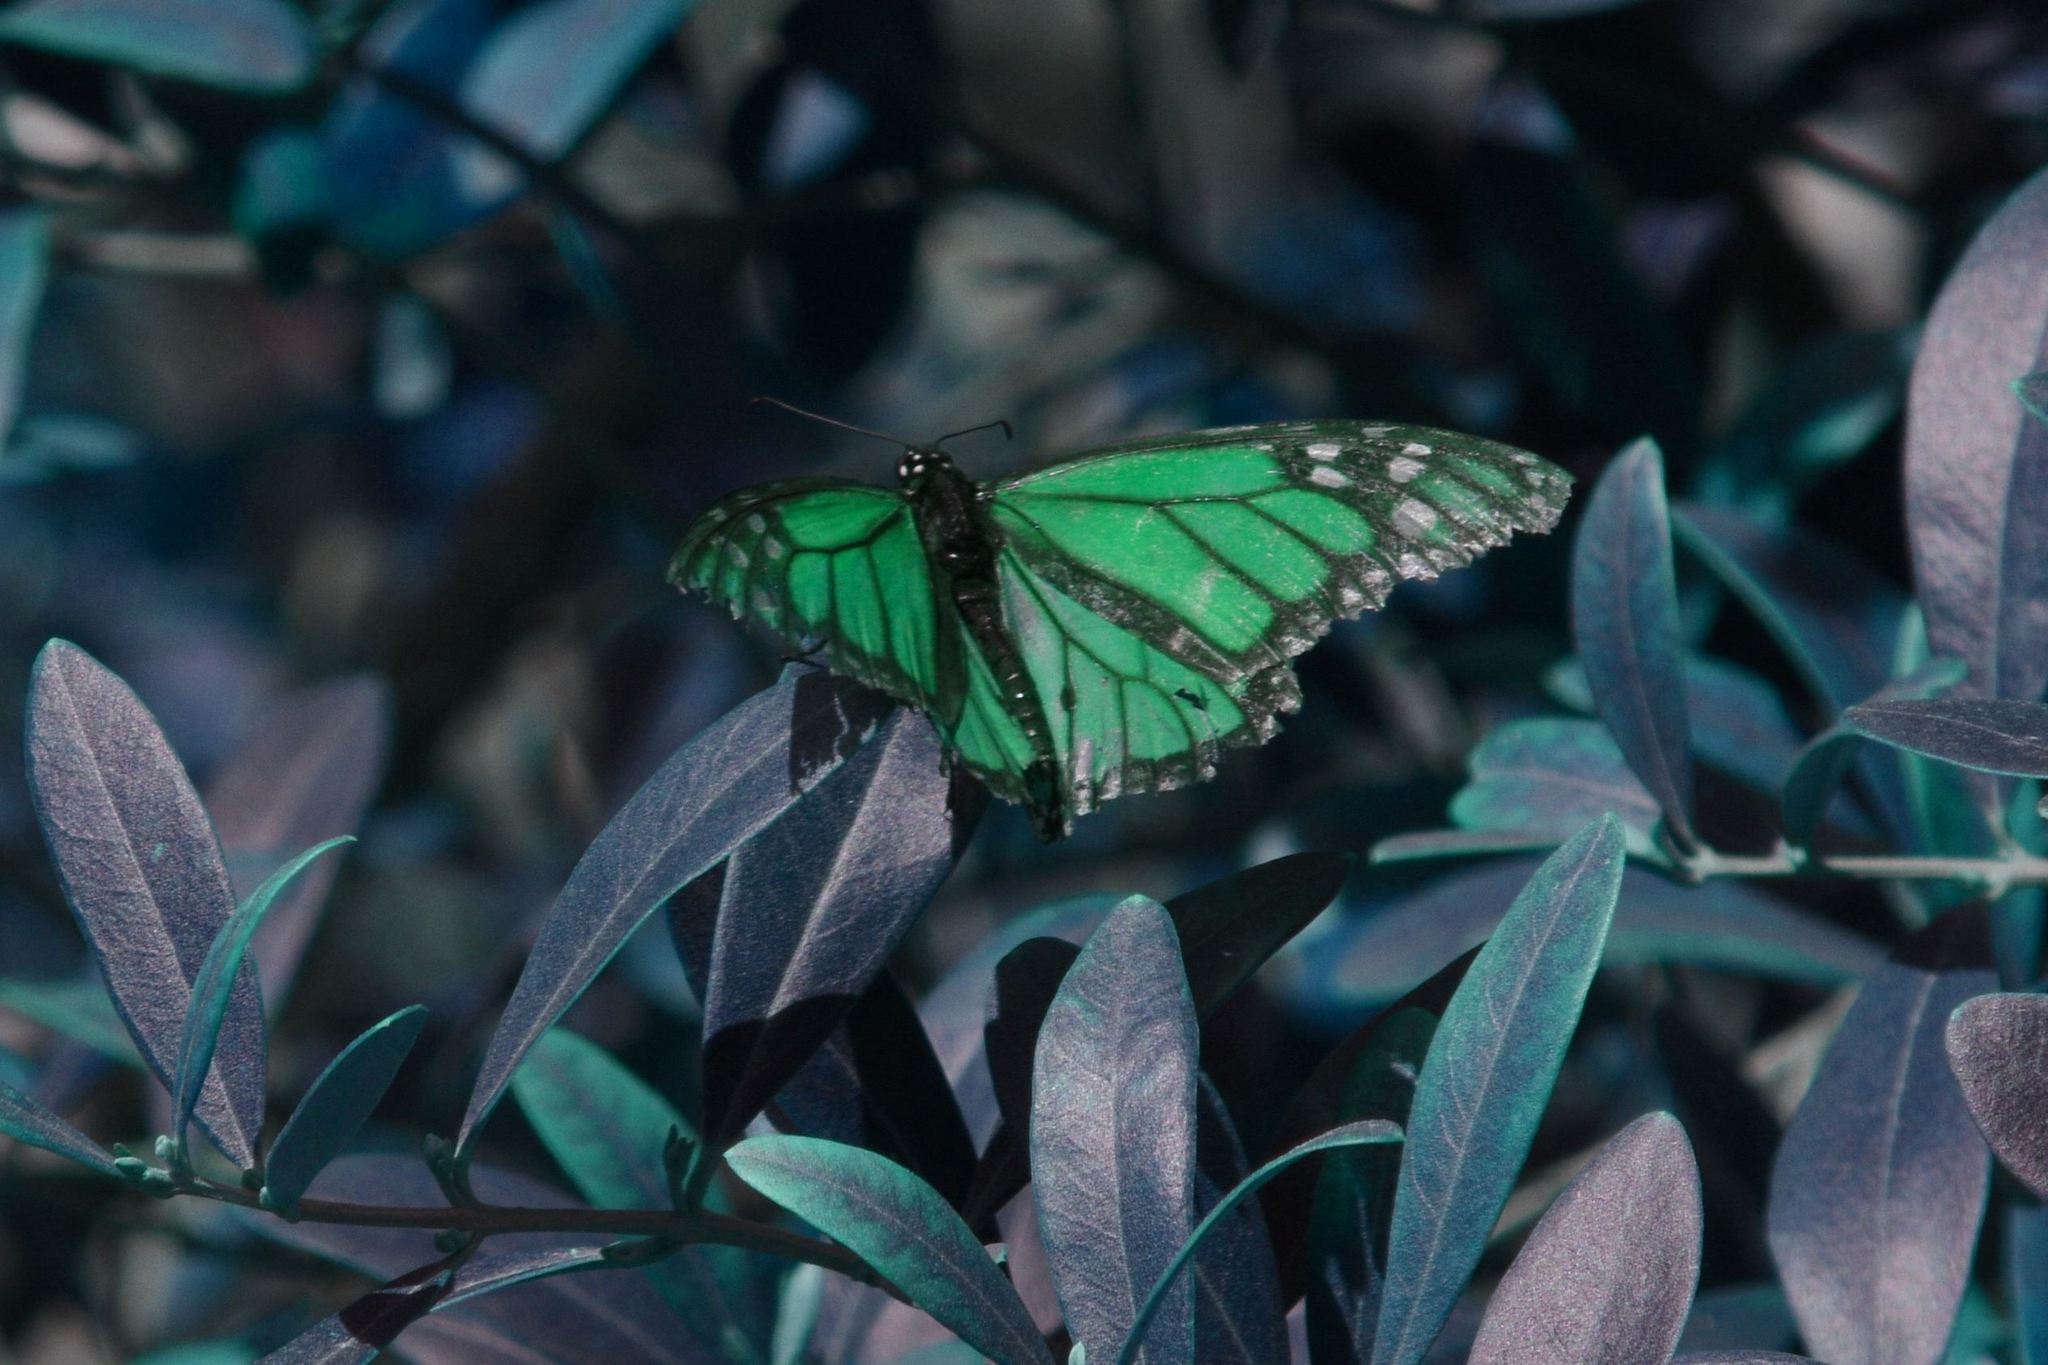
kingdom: Animalia
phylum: Arthropoda
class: Insecta
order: Lepidoptera
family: Nymphalidae
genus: Danaus
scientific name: Danaus plexippus
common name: Monarch
